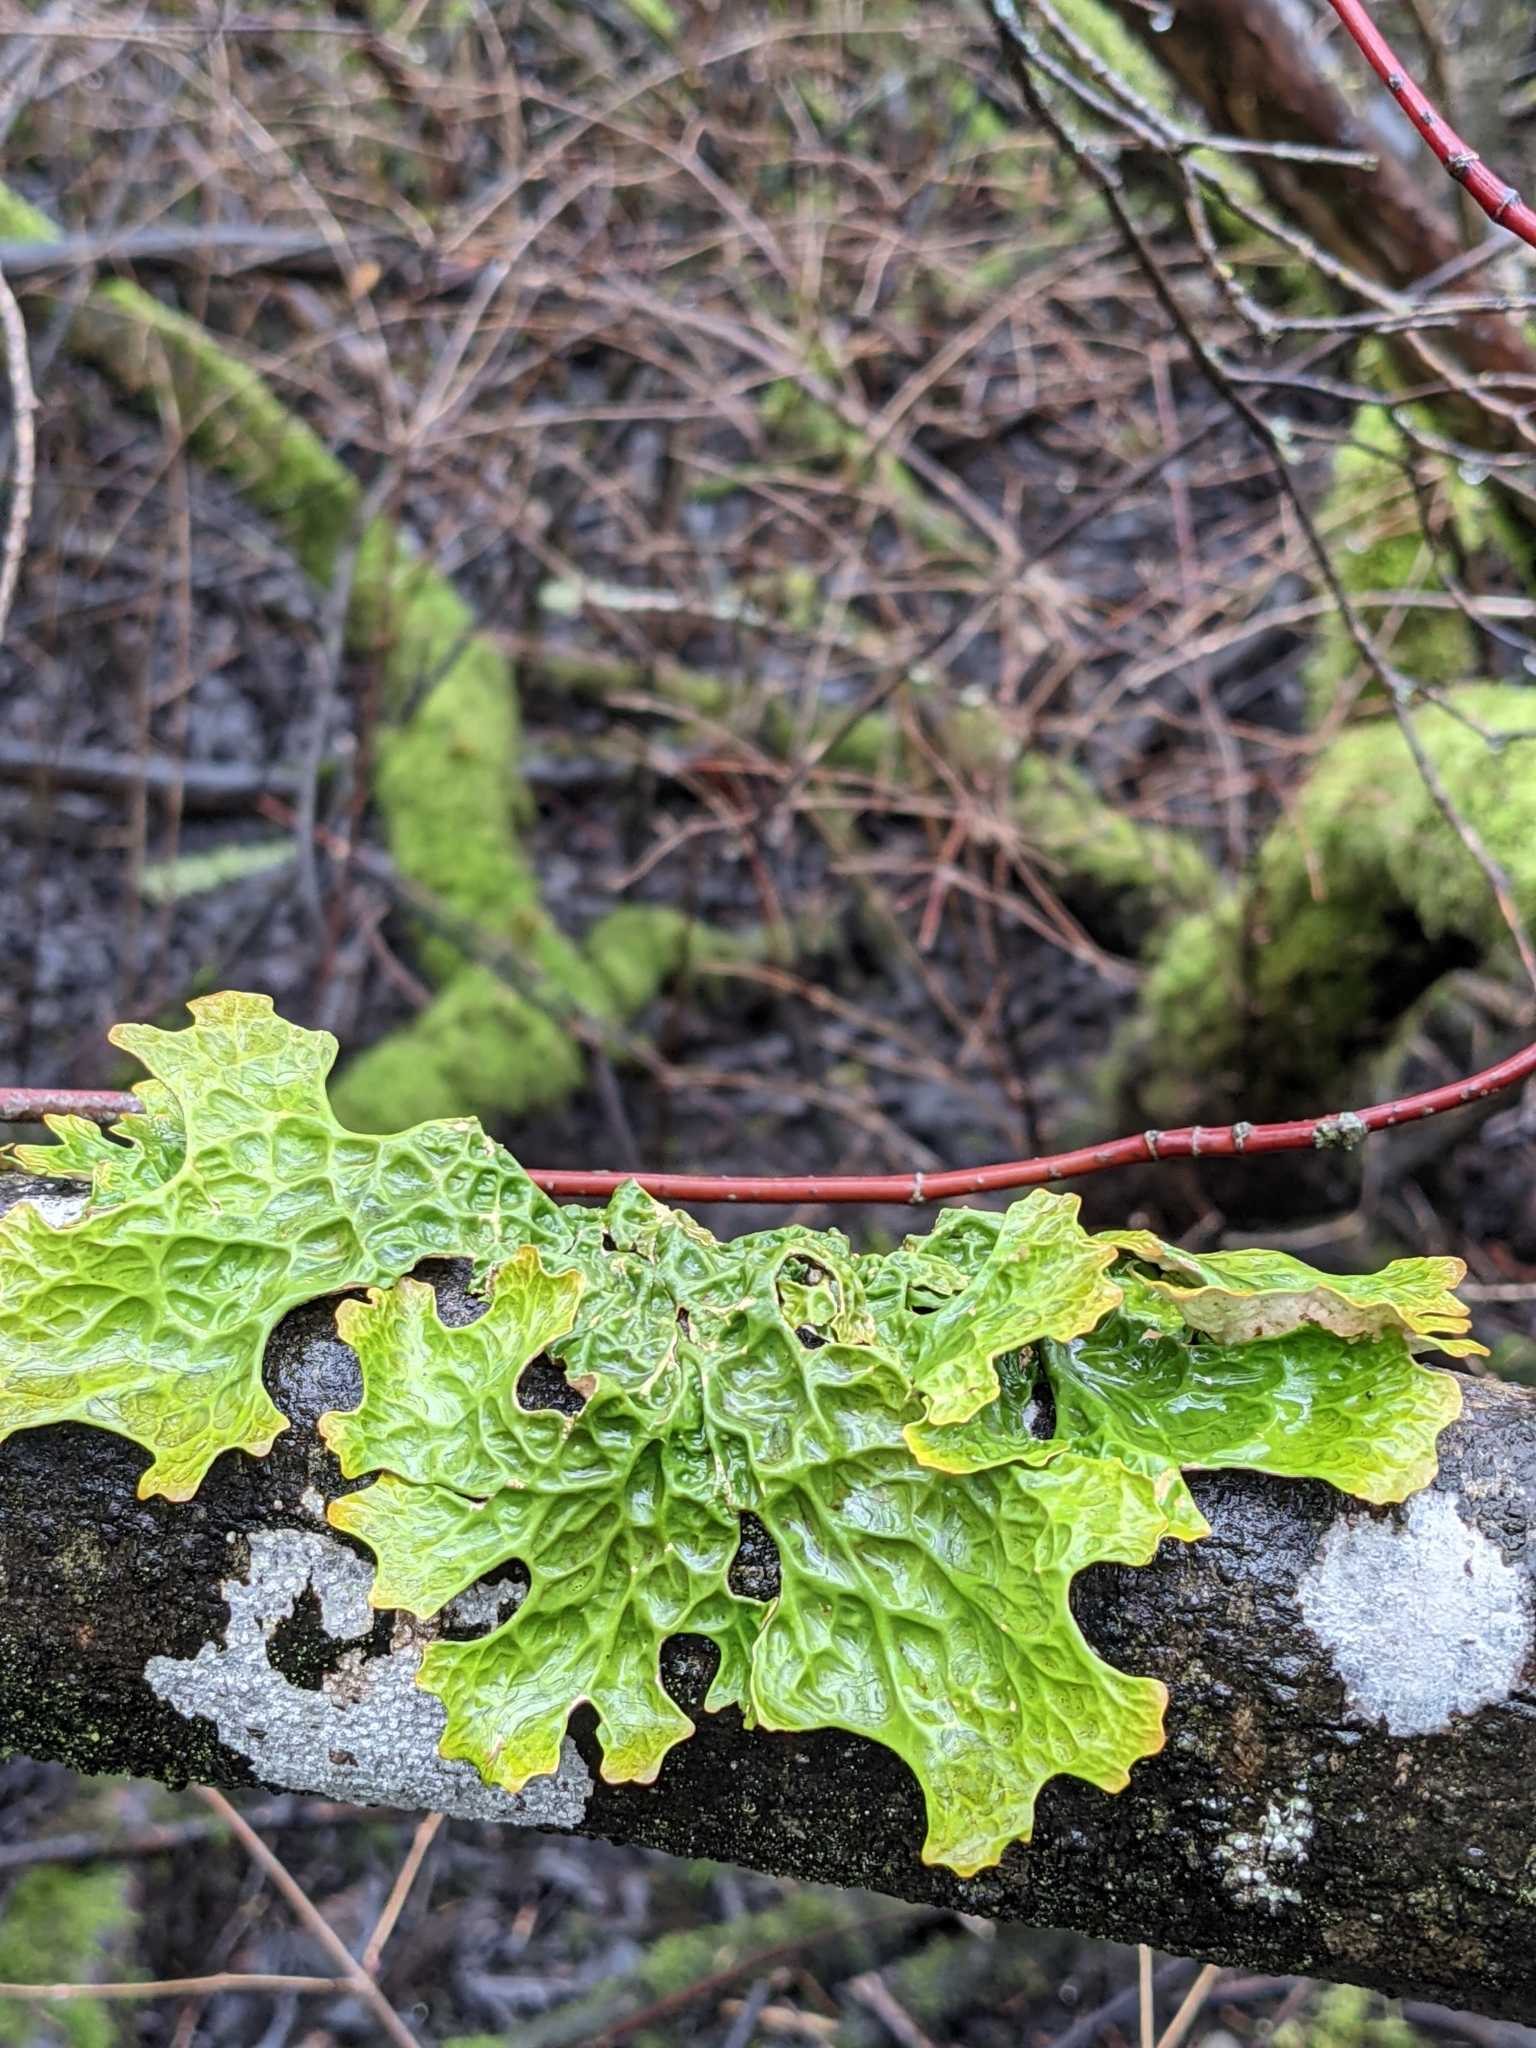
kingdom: Fungi
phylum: Ascomycota
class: Lecanoromycetes
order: Peltigerales
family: Lobariaceae
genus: Lobaria
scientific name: Lobaria pulmonaria
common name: Lungwort
